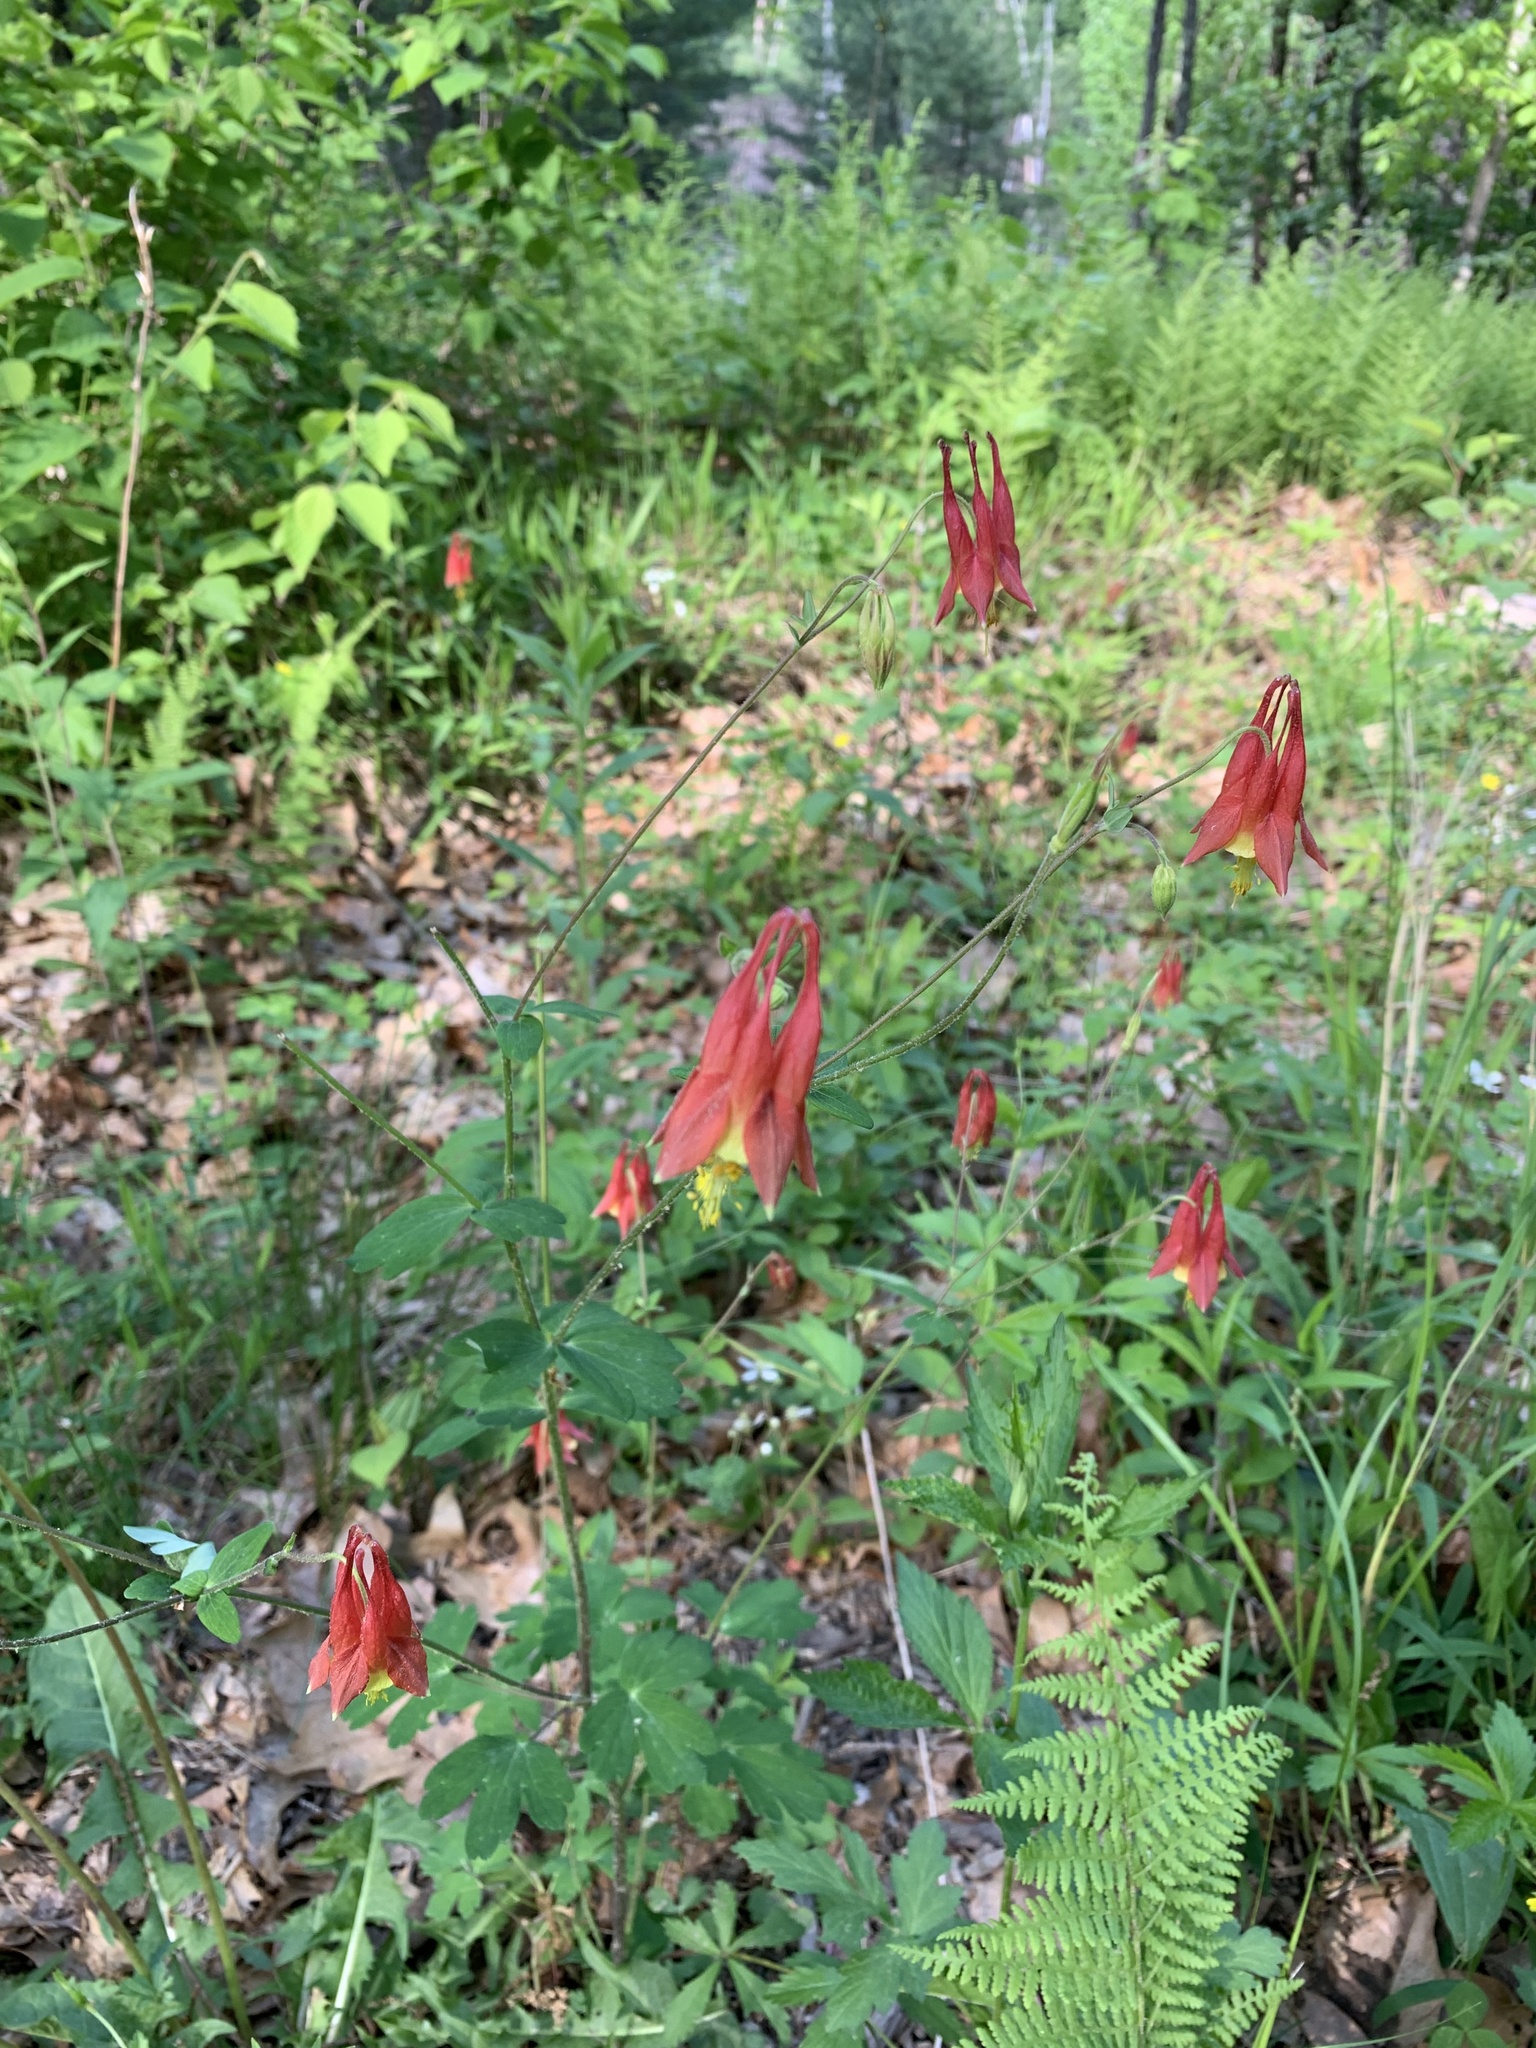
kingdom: Plantae
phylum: Tracheophyta
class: Magnoliopsida
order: Ranunculales
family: Ranunculaceae
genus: Aquilegia
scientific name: Aquilegia canadensis
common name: American columbine
